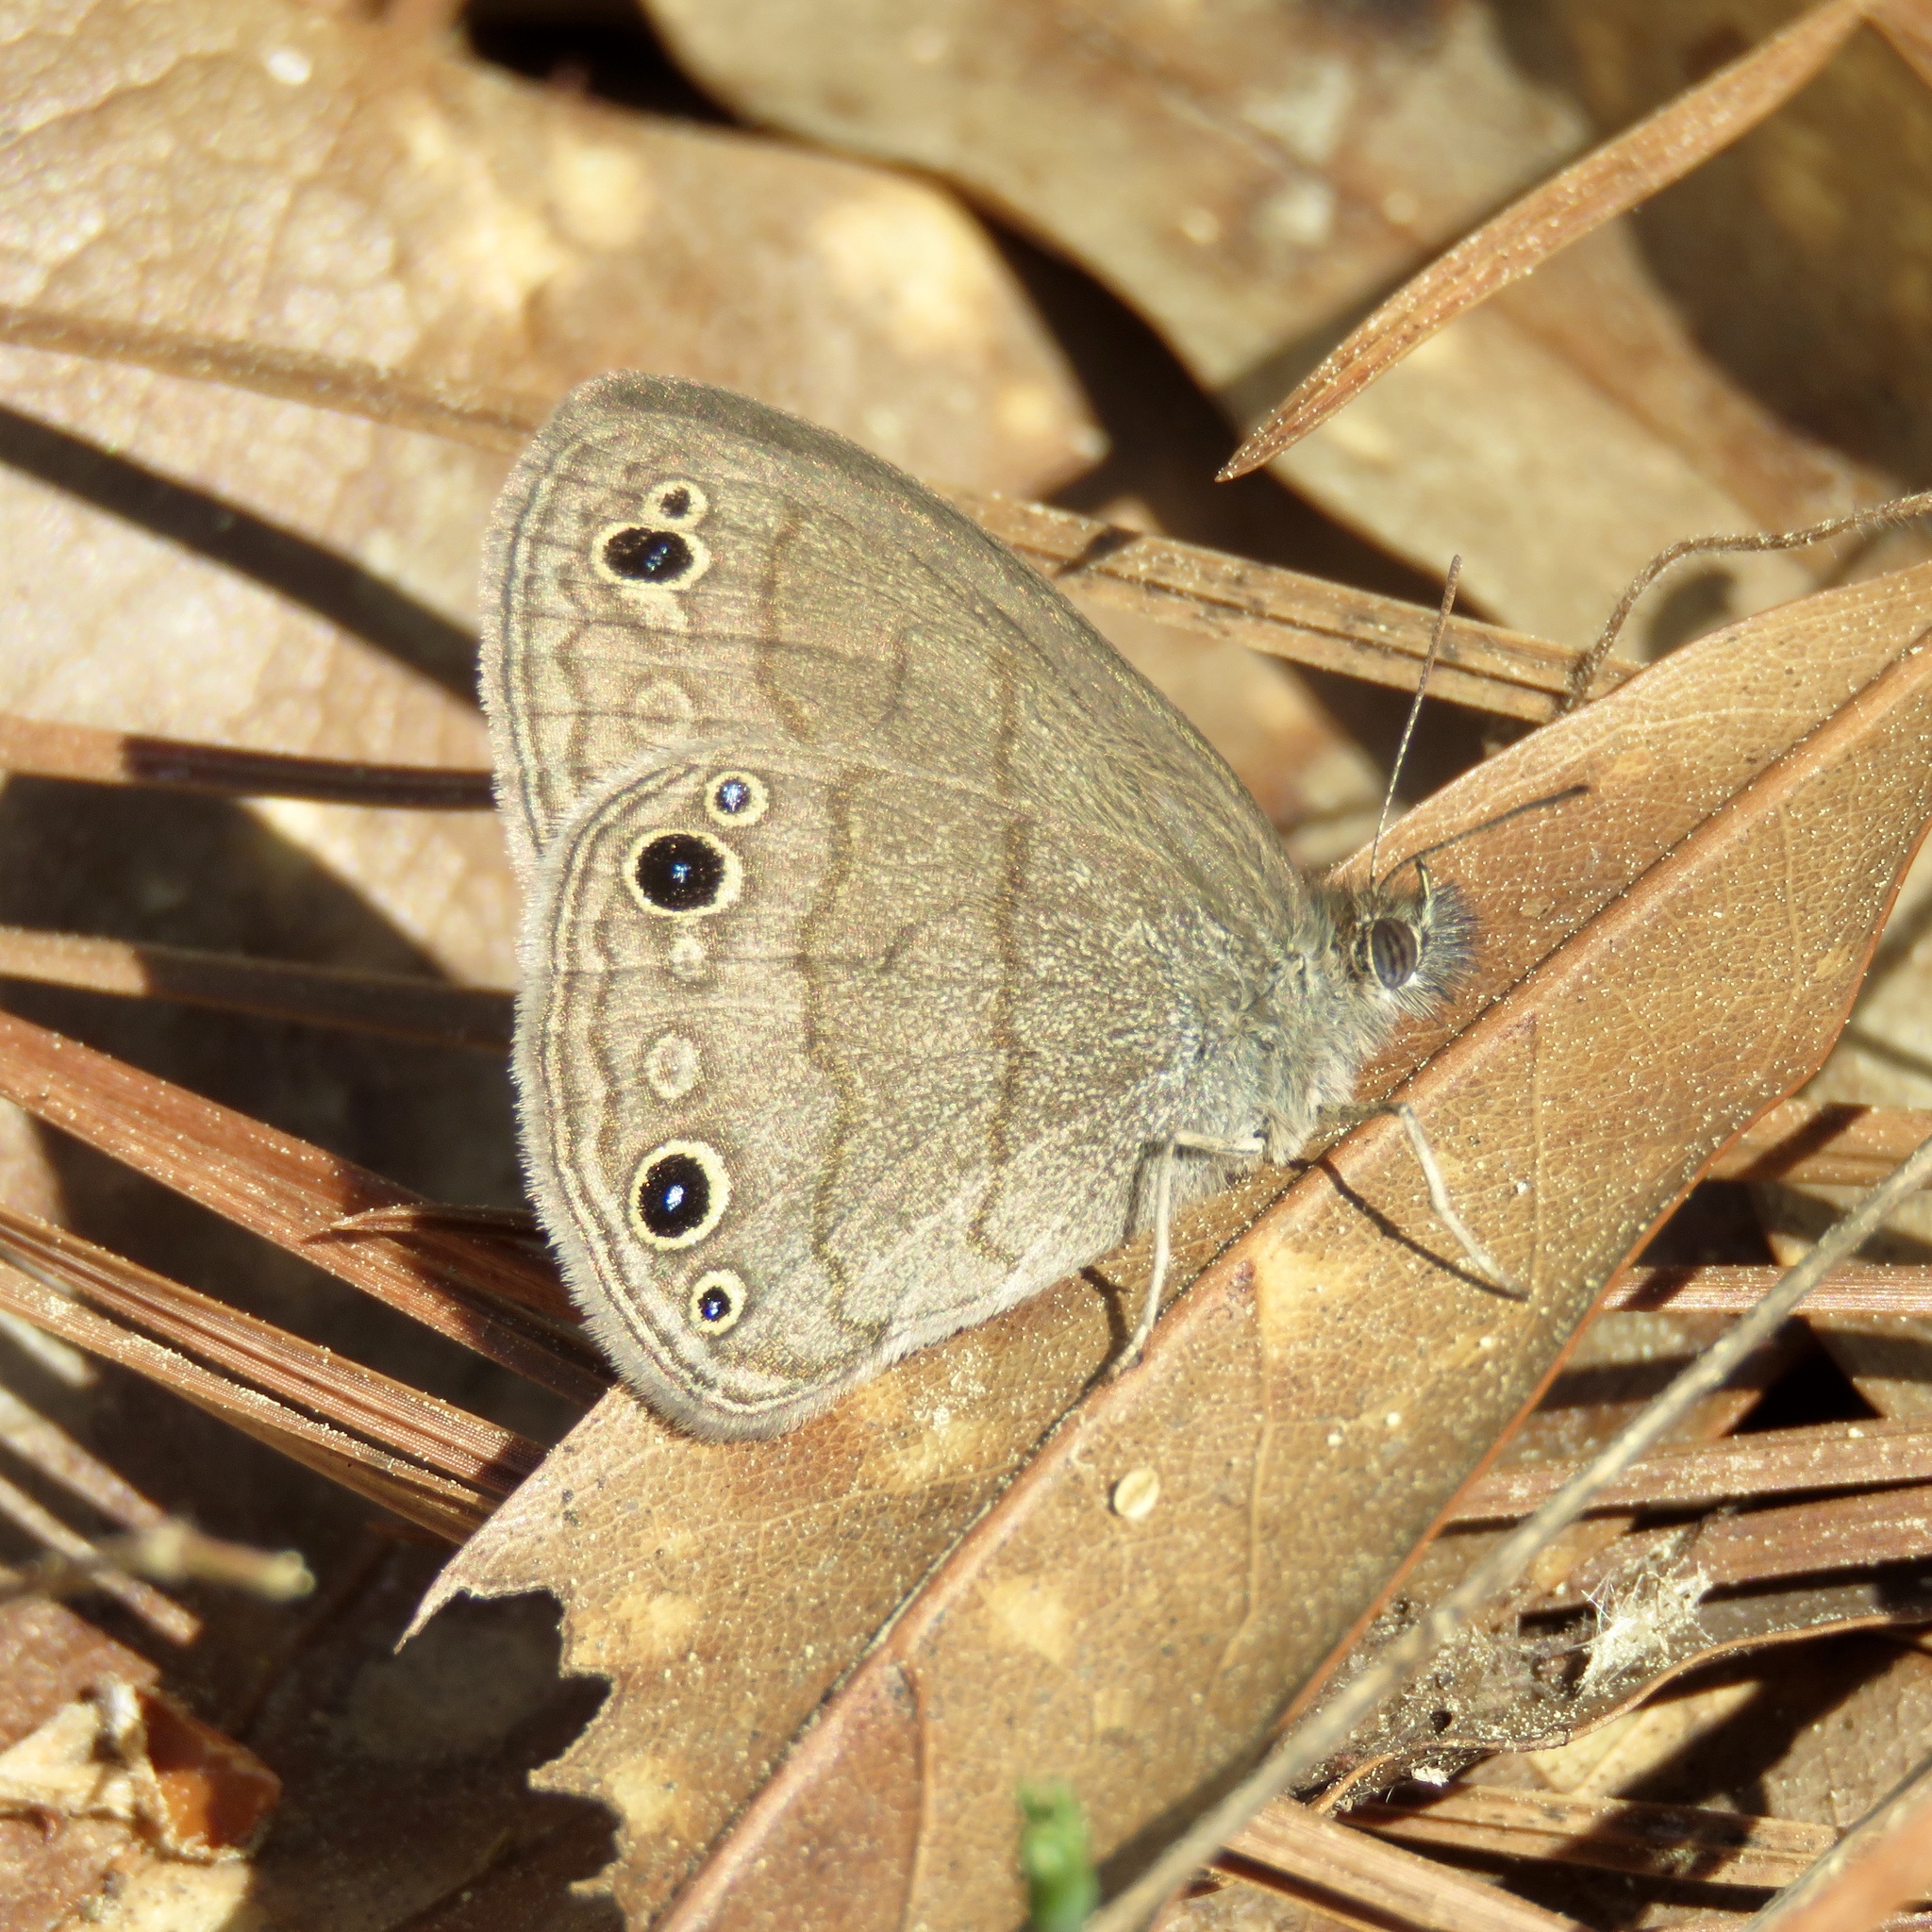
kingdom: Animalia
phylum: Arthropoda
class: Insecta
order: Lepidoptera
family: Nymphalidae
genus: Hermeuptychia
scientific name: Hermeuptychia hermes
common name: Hermes satyr
